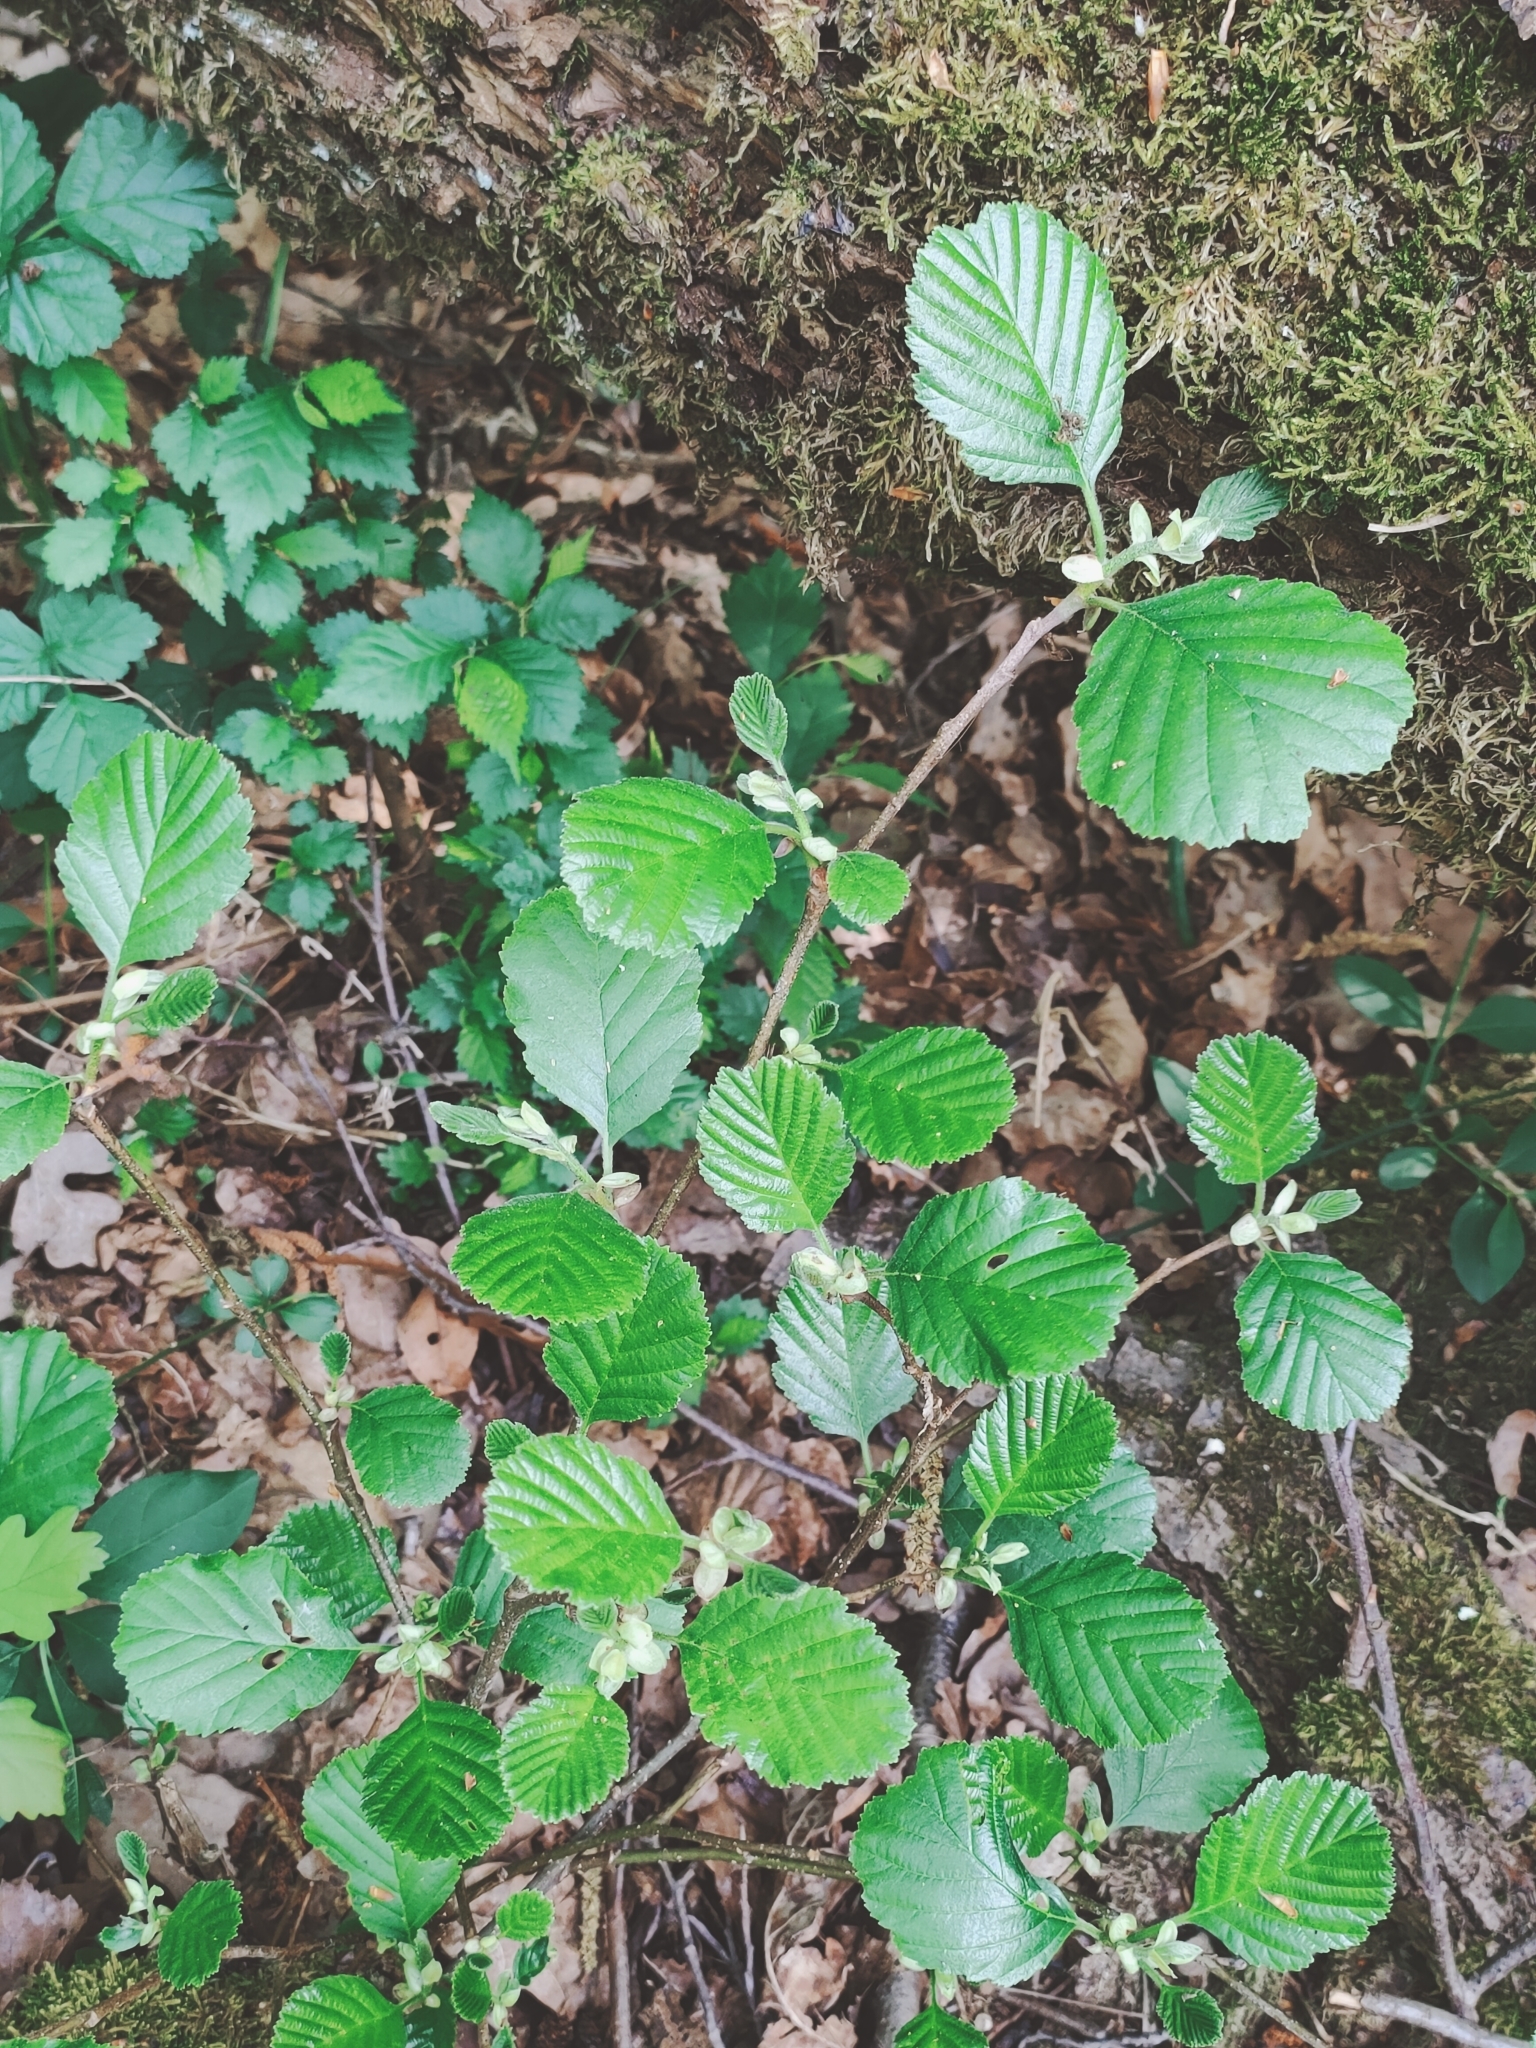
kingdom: Plantae
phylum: Tracheophyta
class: Magnoliopsida
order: Fagales
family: Betulaceae
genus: Alnus
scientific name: Alnus glutinosa
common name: Black alder
